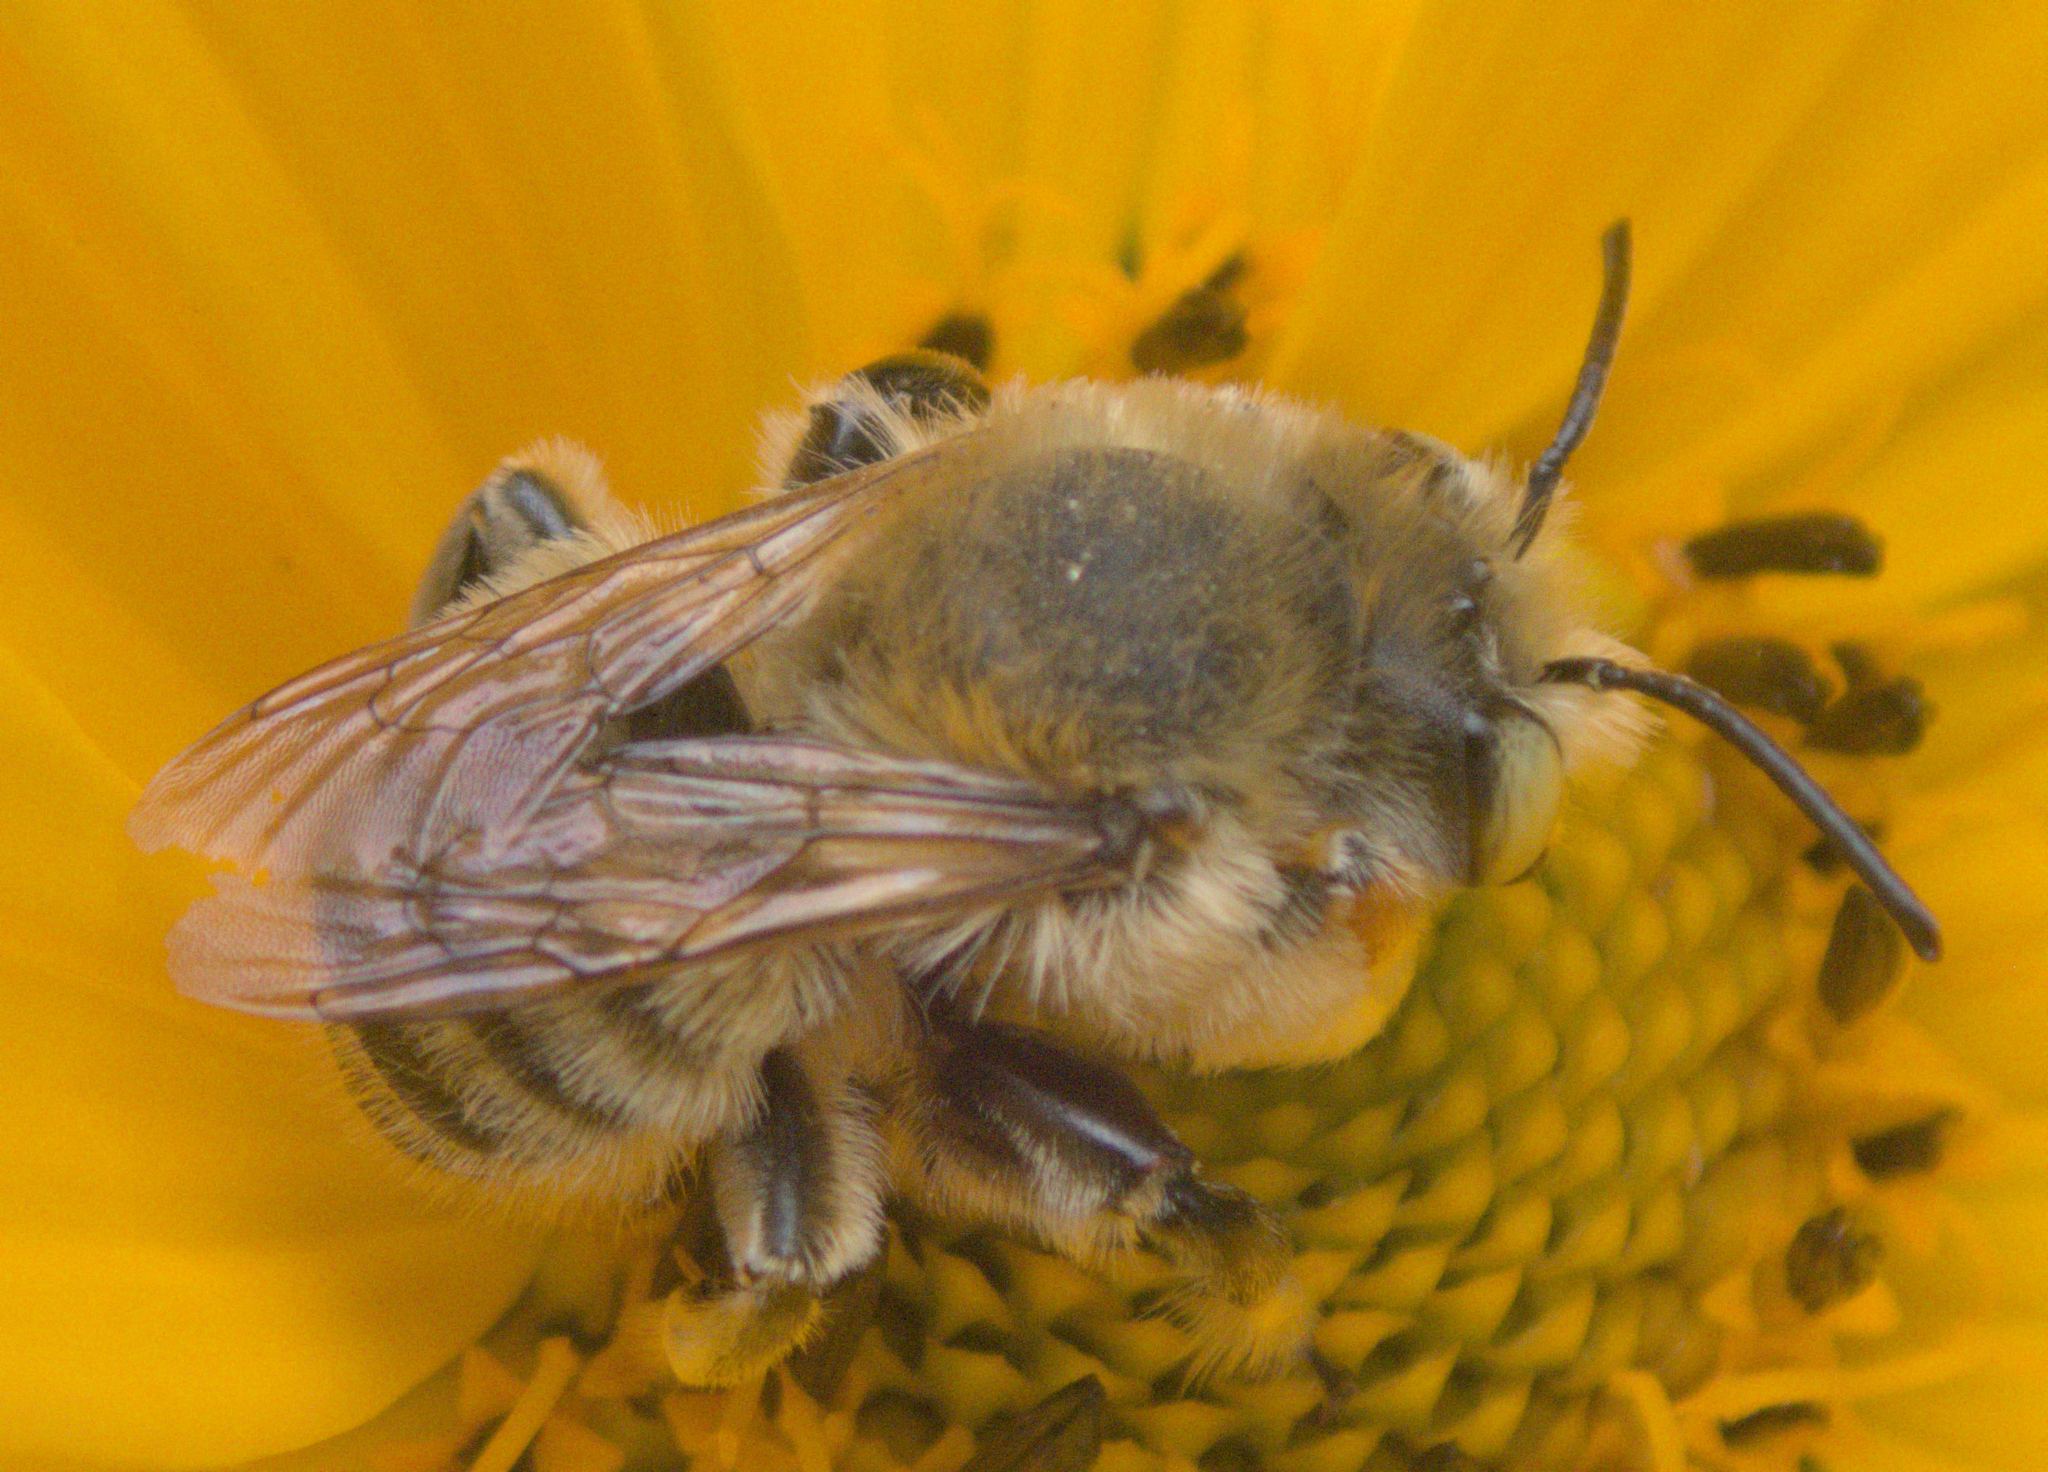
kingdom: Animalia
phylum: Arthropoda
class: Insecta
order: Hymenoptera
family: Megachilidae
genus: Megachile
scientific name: Megachile latimanus
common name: Leafcutting bee
